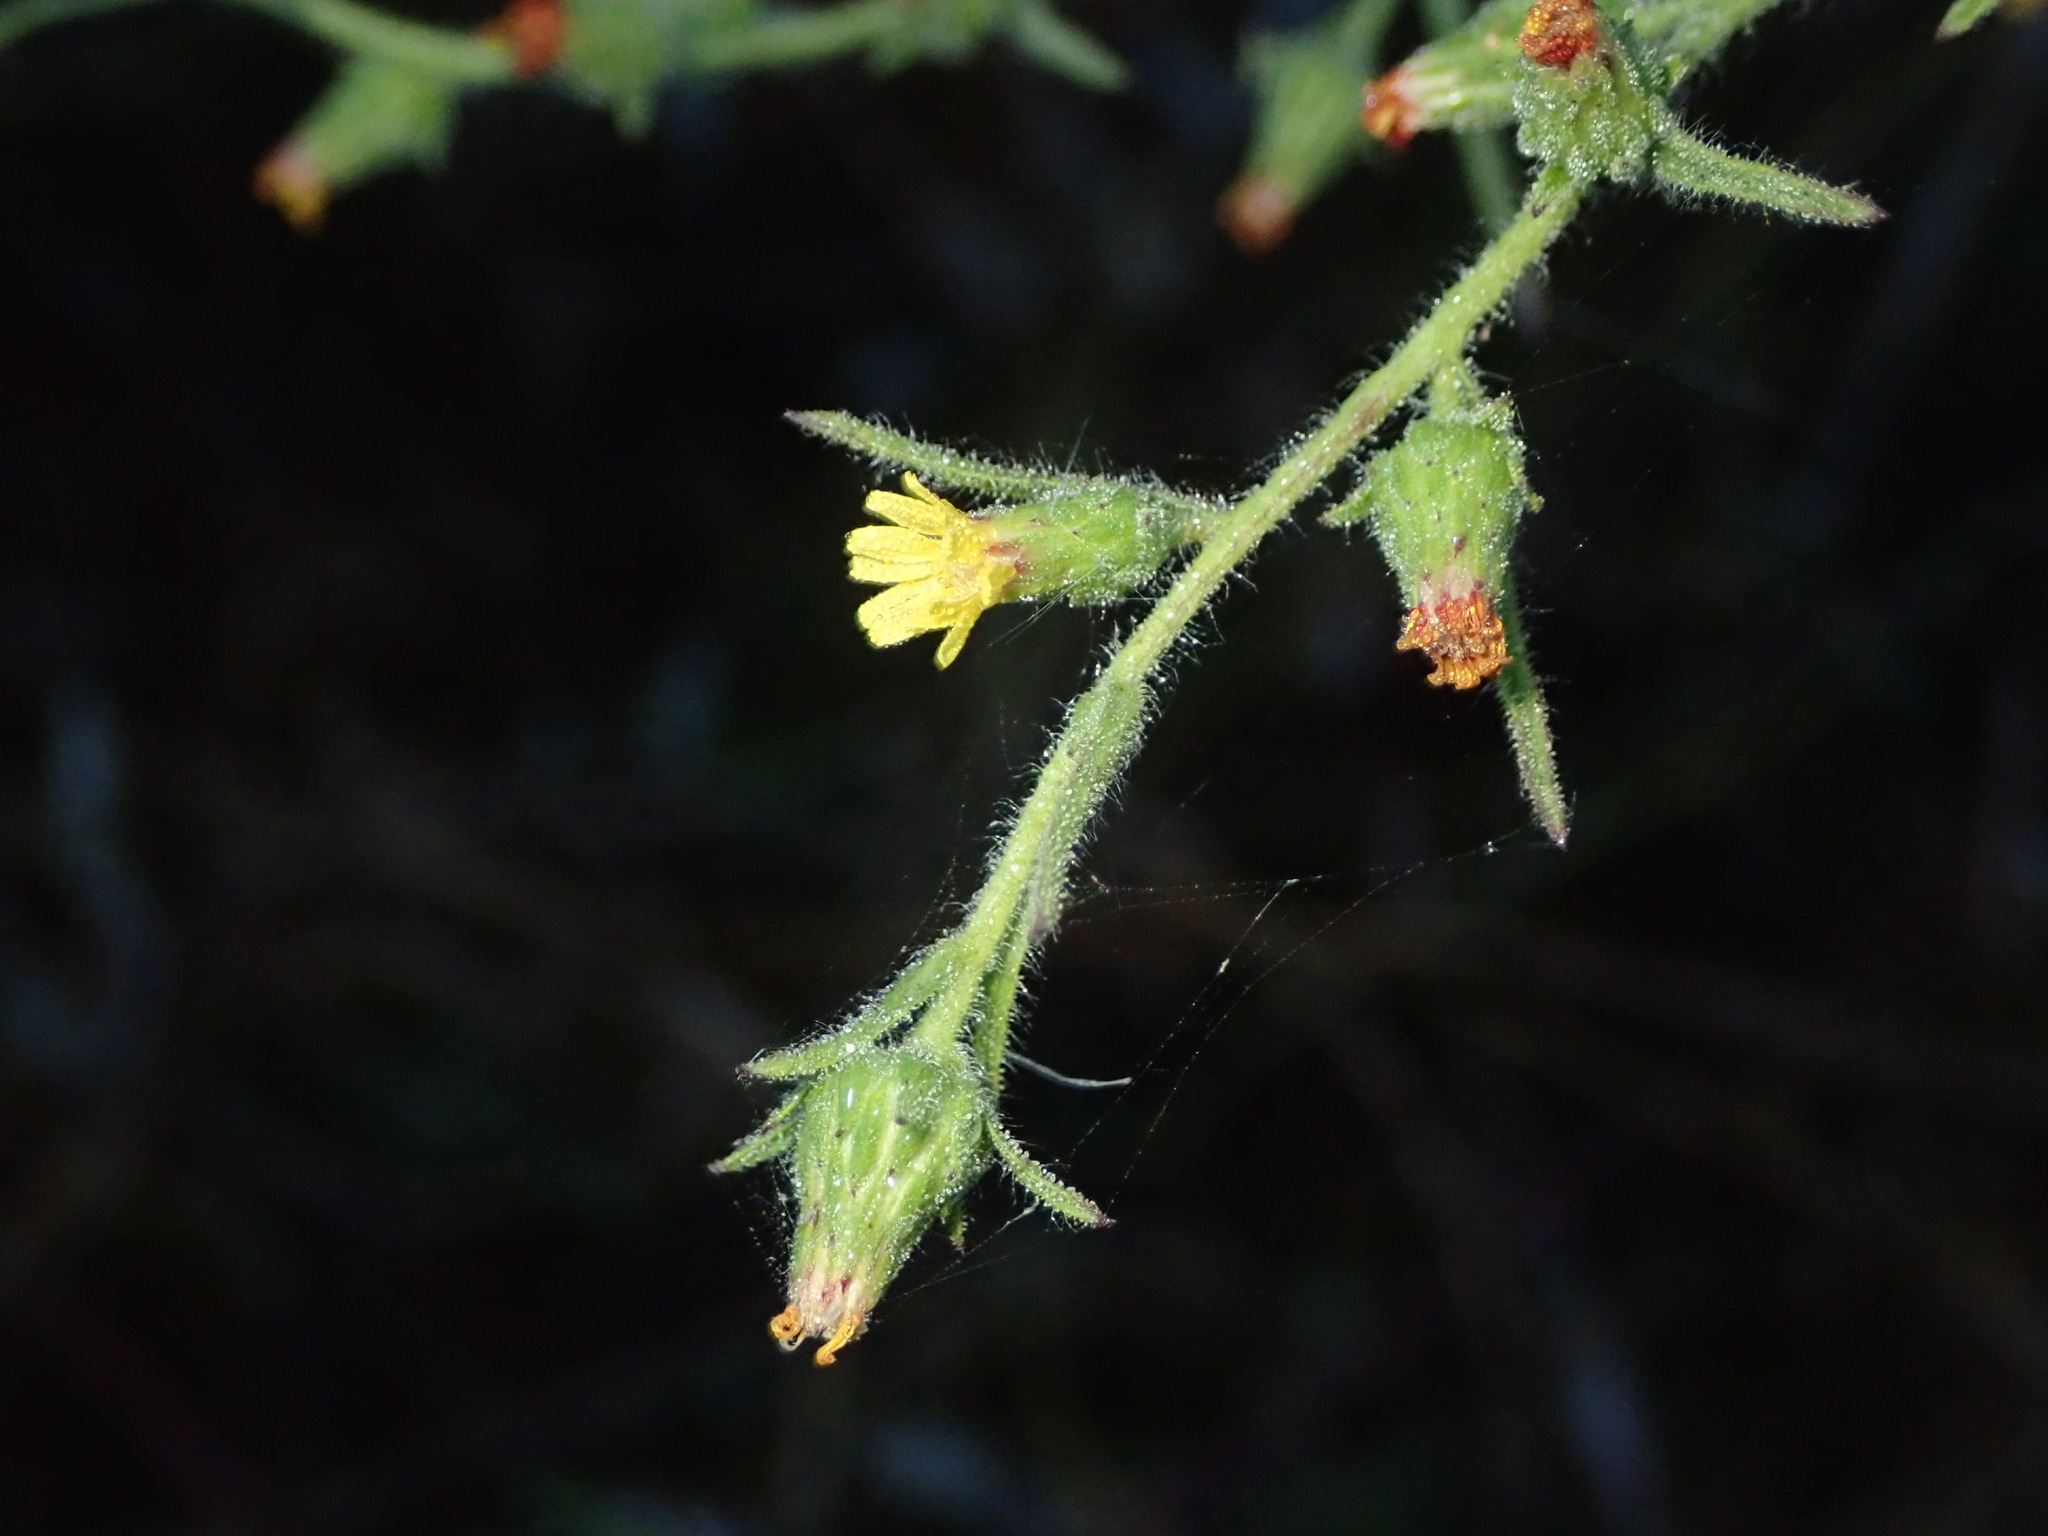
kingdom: Plantae
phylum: Tracheophyta
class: Magnoliopsida
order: Asterales
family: Asteraceae
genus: Dittrichia
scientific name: Dittrichia graveolens
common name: Stinking fleabane
